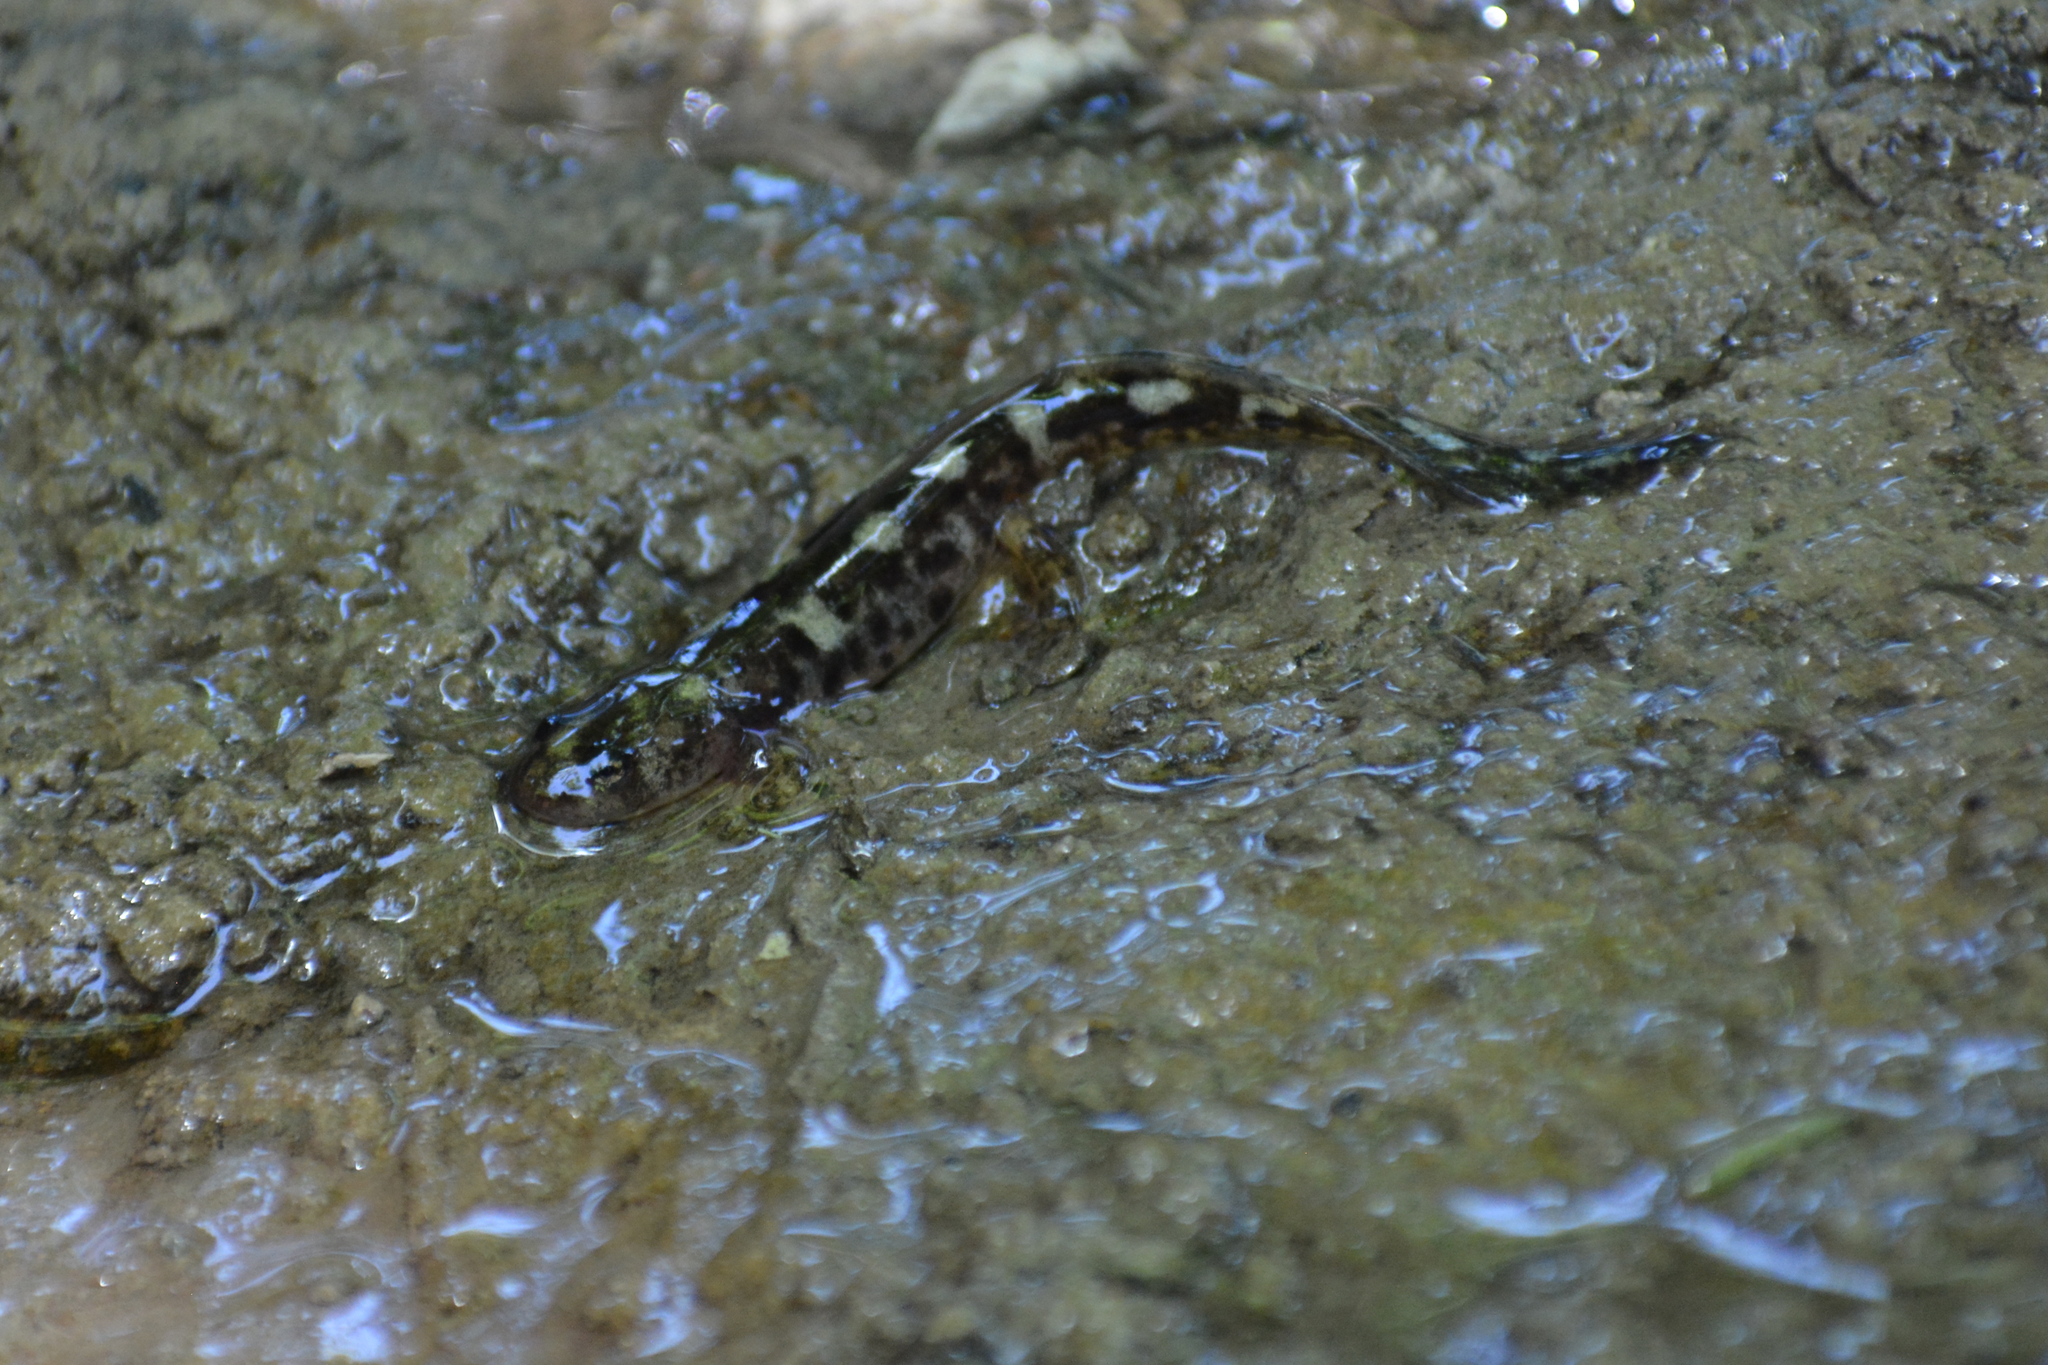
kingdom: Animalia
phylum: Chordata
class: Amphibia
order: Caudata
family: Salamandridae
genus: Neurergus
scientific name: Neurergus derjugini
